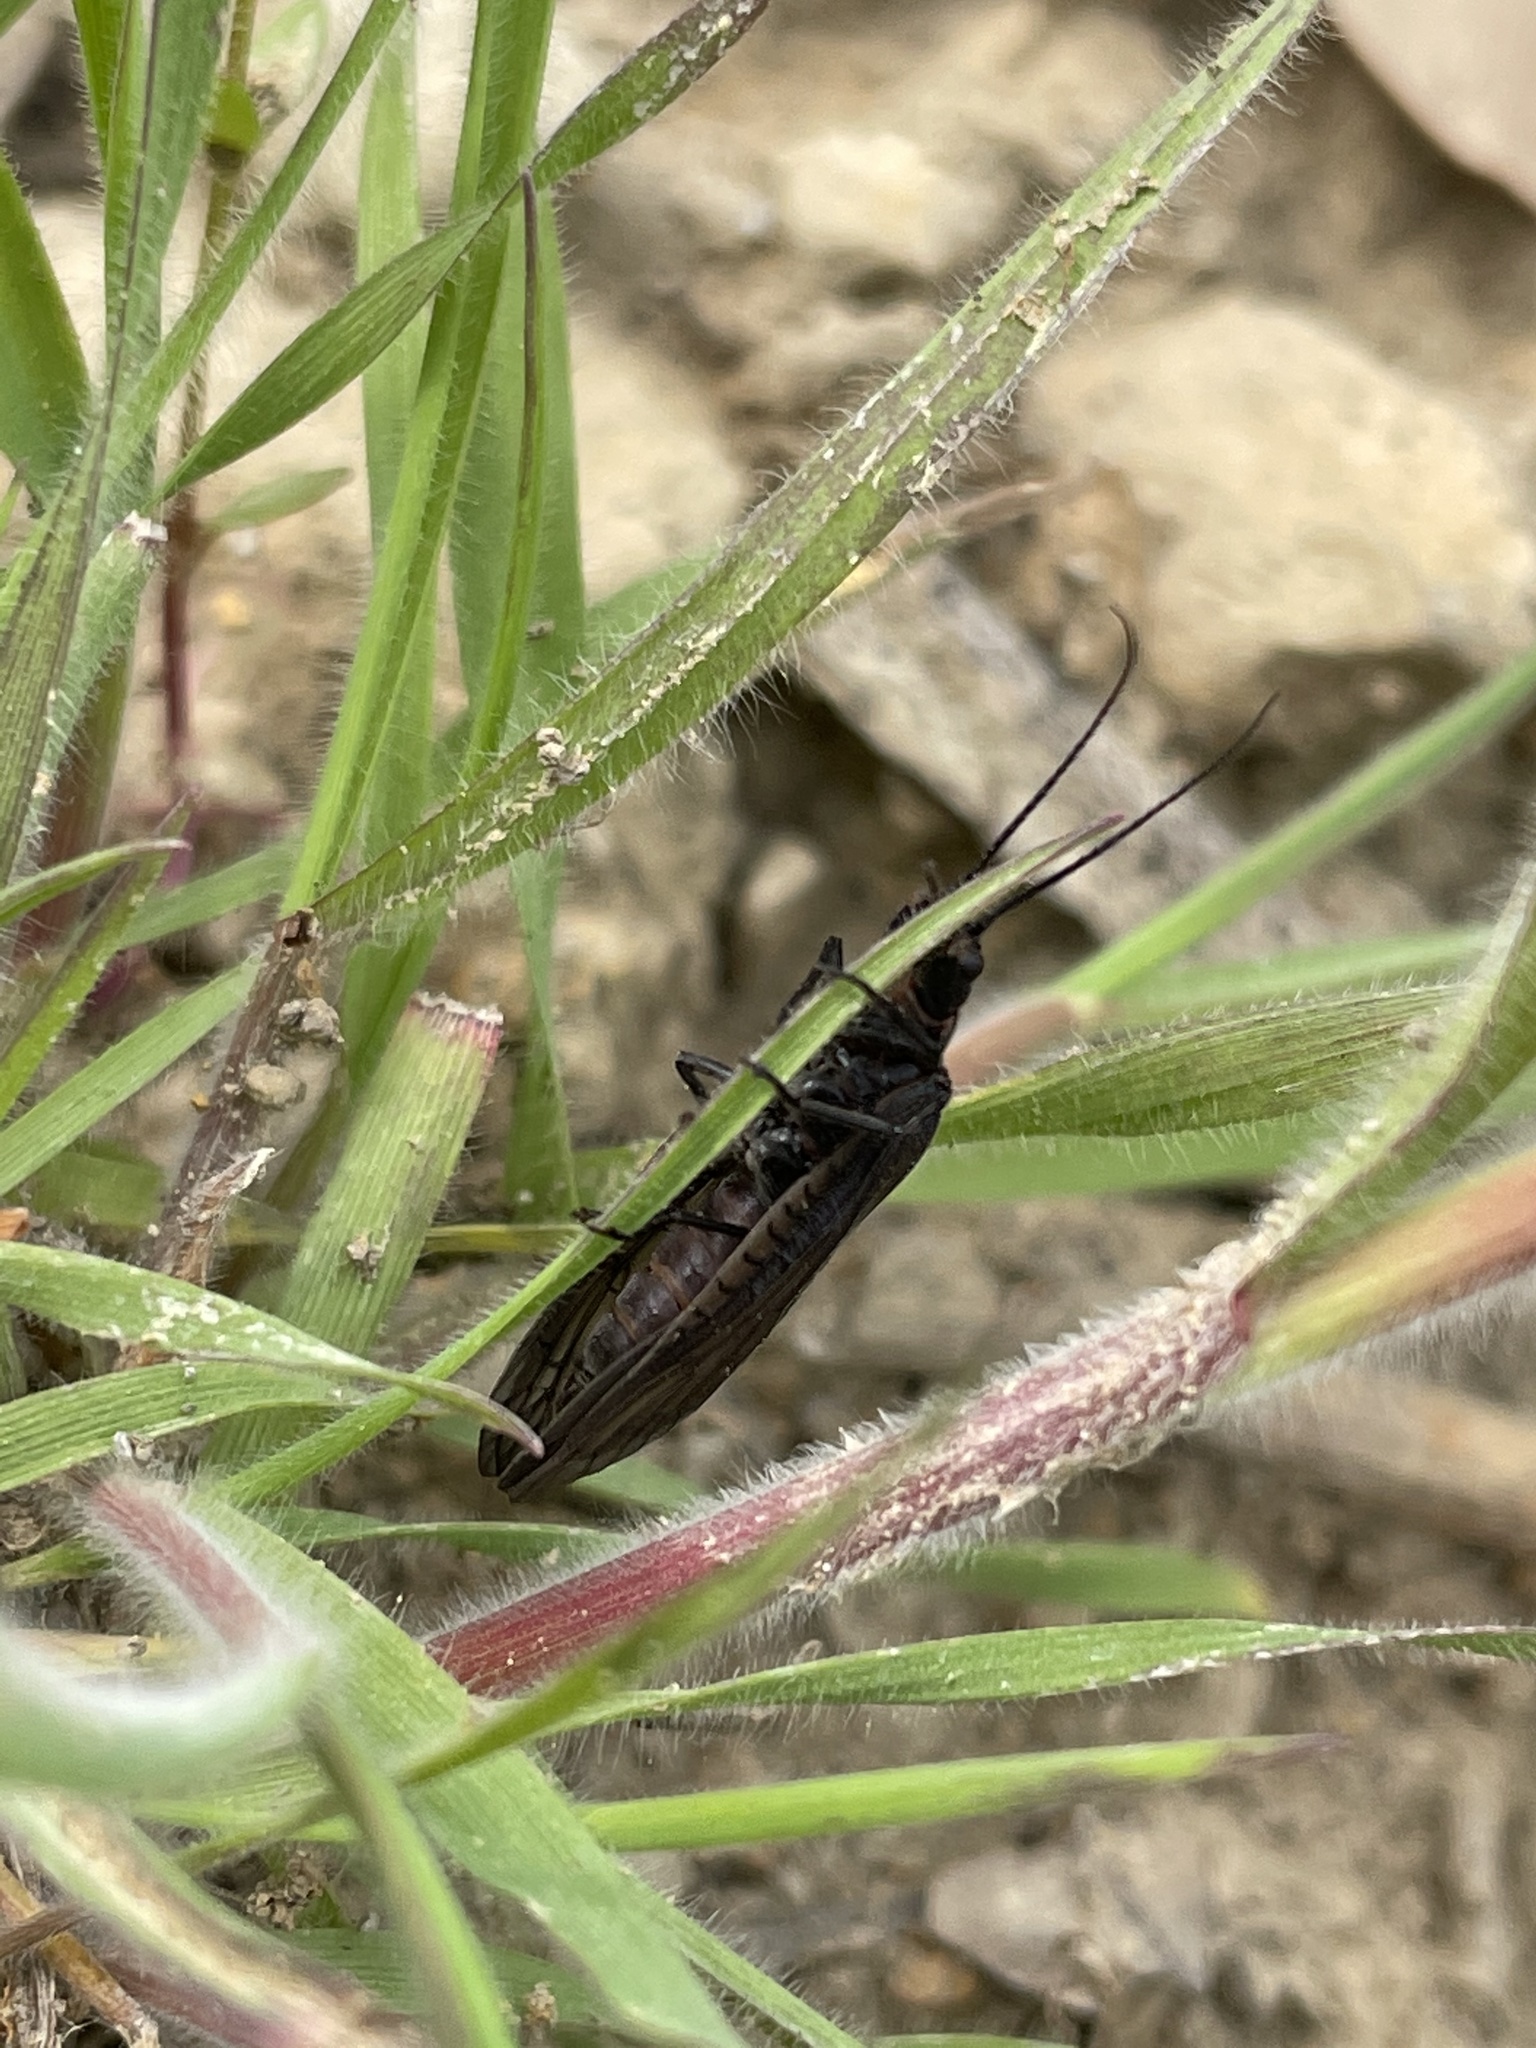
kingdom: Animalia
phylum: Arthropoda
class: Insecta
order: Megaloptera
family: Sialidae
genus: Sialis
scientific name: Sialis
